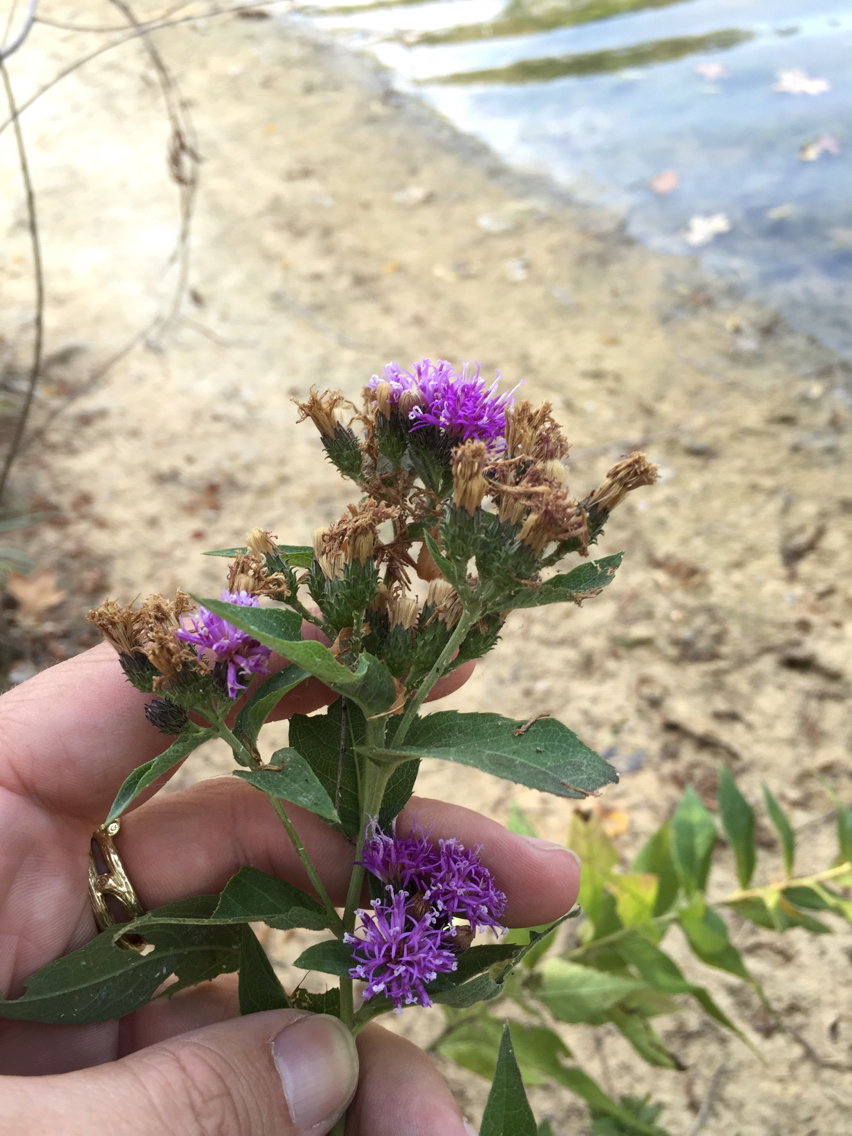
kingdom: Plantae
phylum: Tracheophyta
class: Magnoliopsida
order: Asterales
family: Asteraceae
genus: Vernonia
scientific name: Vernonia baldwinii
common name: Western ironweed
